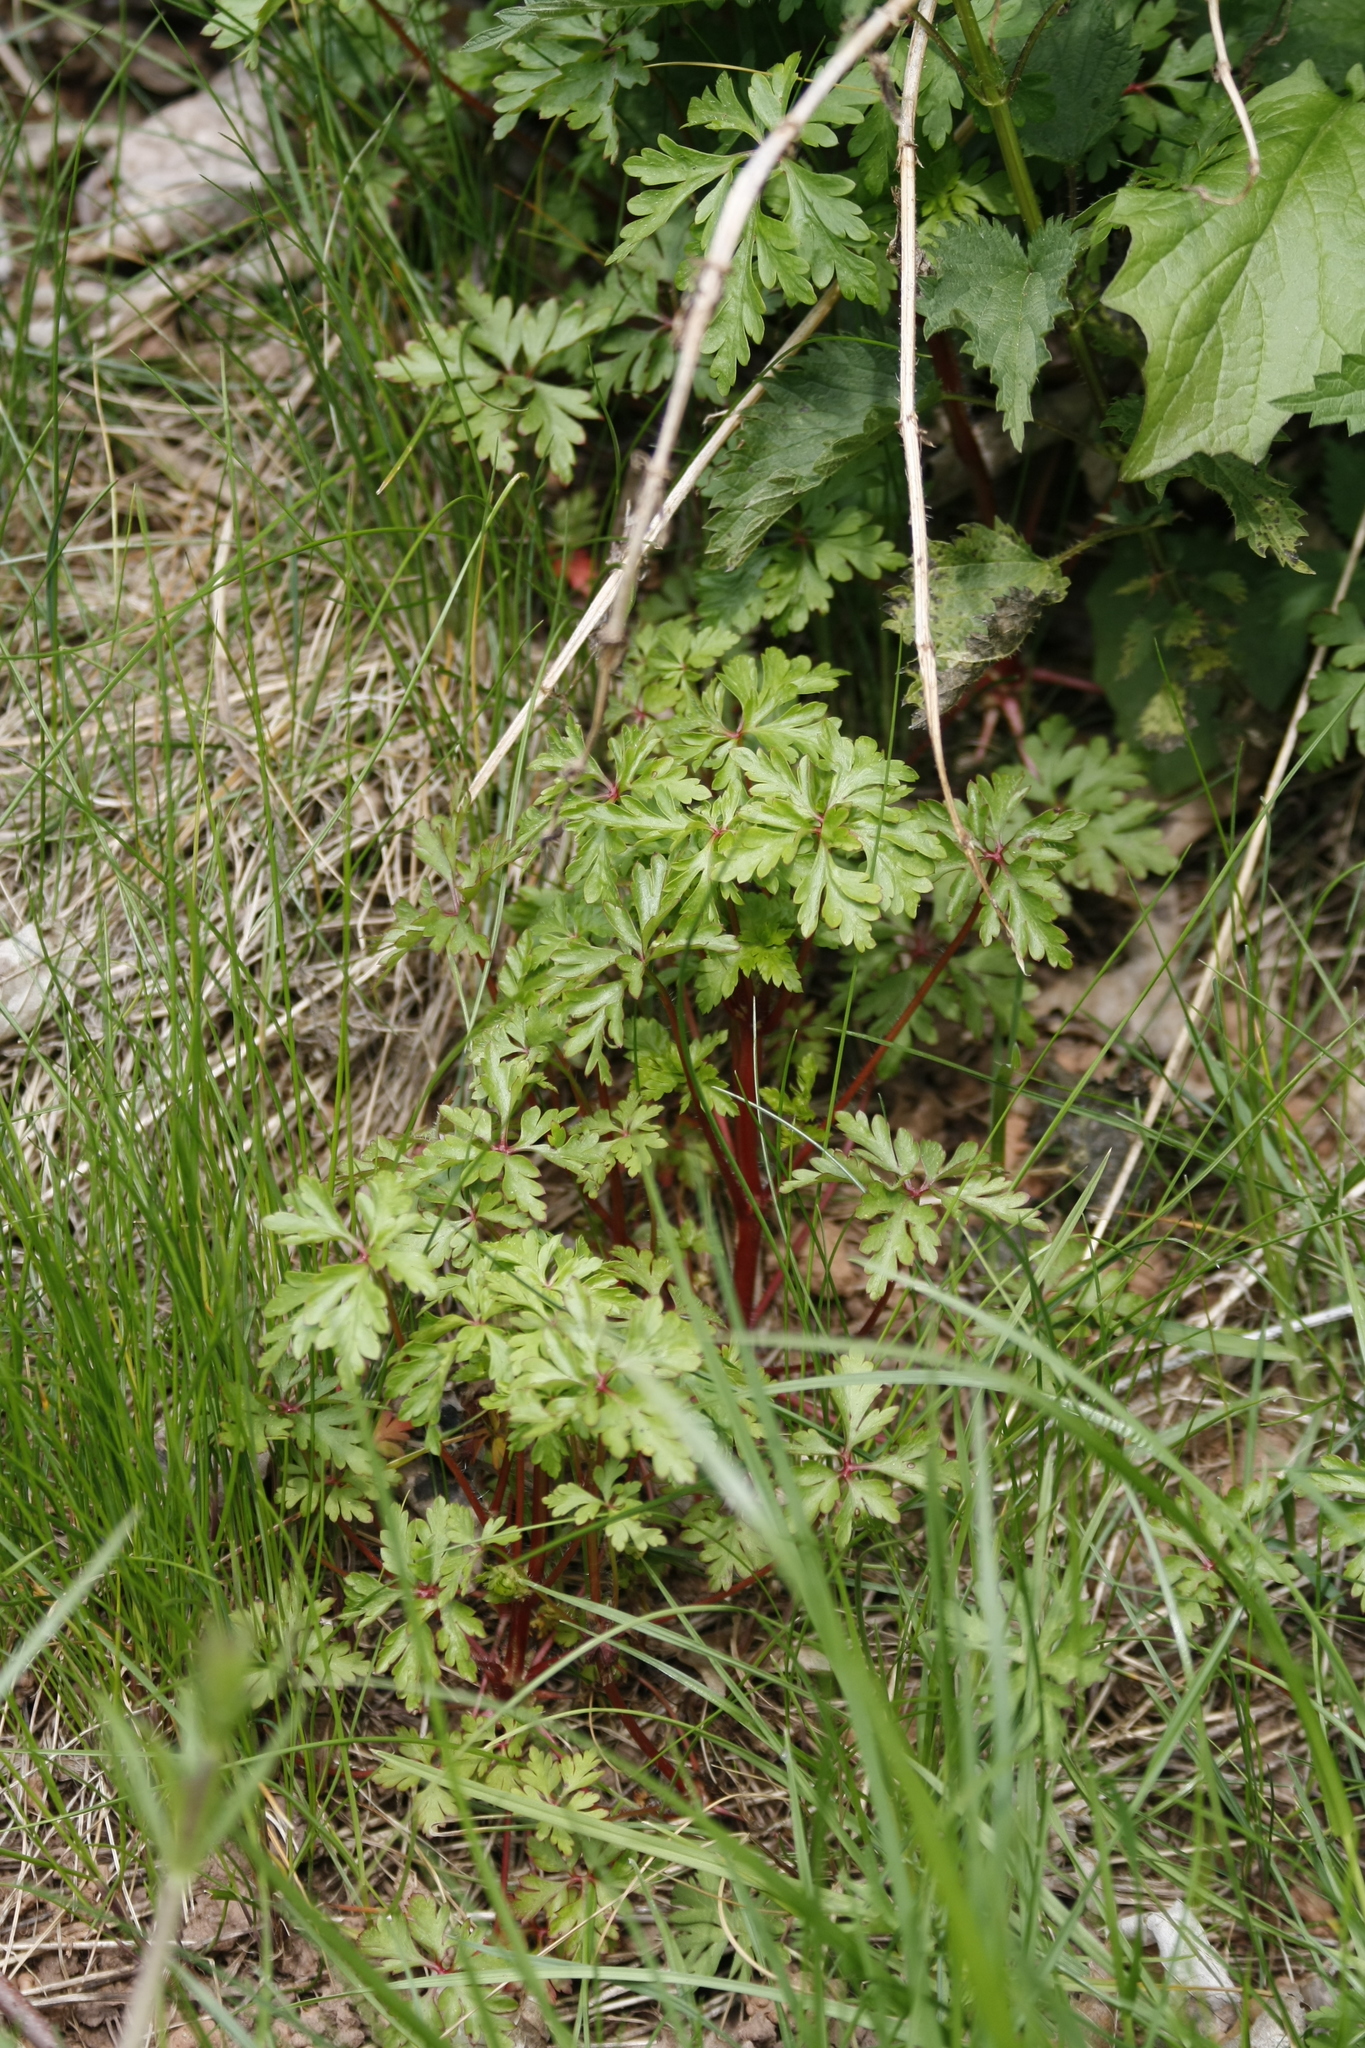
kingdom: Plantae
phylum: Tracheophyta
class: Magnoliopsida
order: Geraniales
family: Geraniaceae
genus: Geranium
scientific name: Geranium robertianum
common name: Herb-robert
